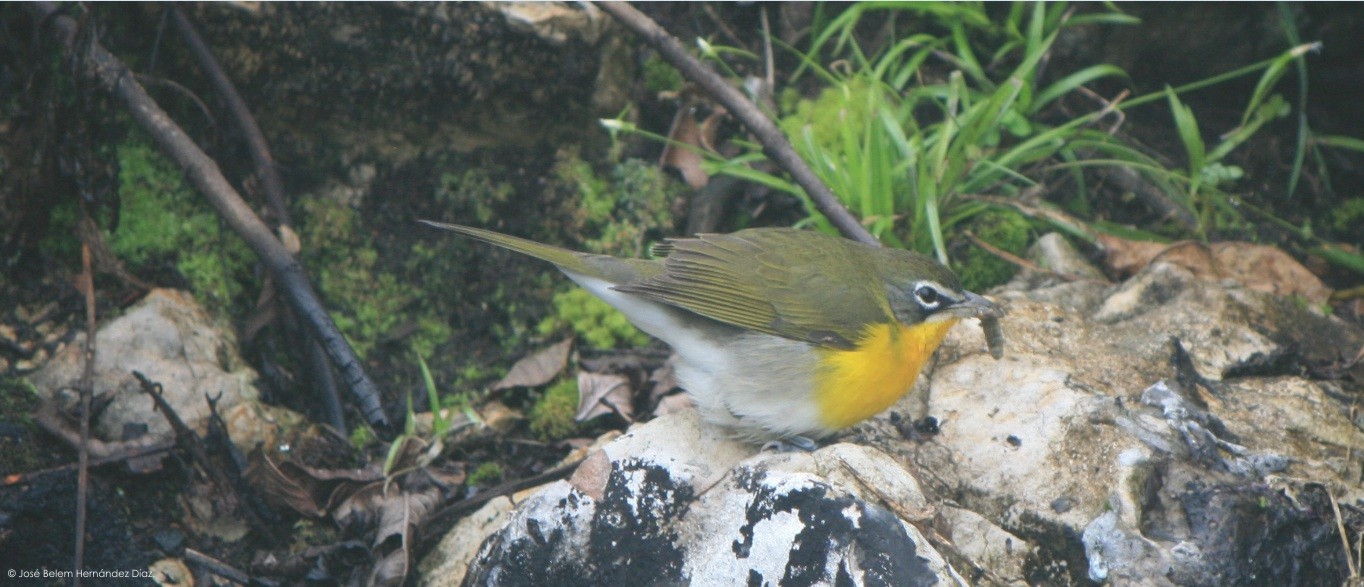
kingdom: Animalia
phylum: Chordata
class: Aves
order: Passeriformes
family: Parulidae
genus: Icteria
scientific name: Icteria virens
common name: Yellow-breasted chat
